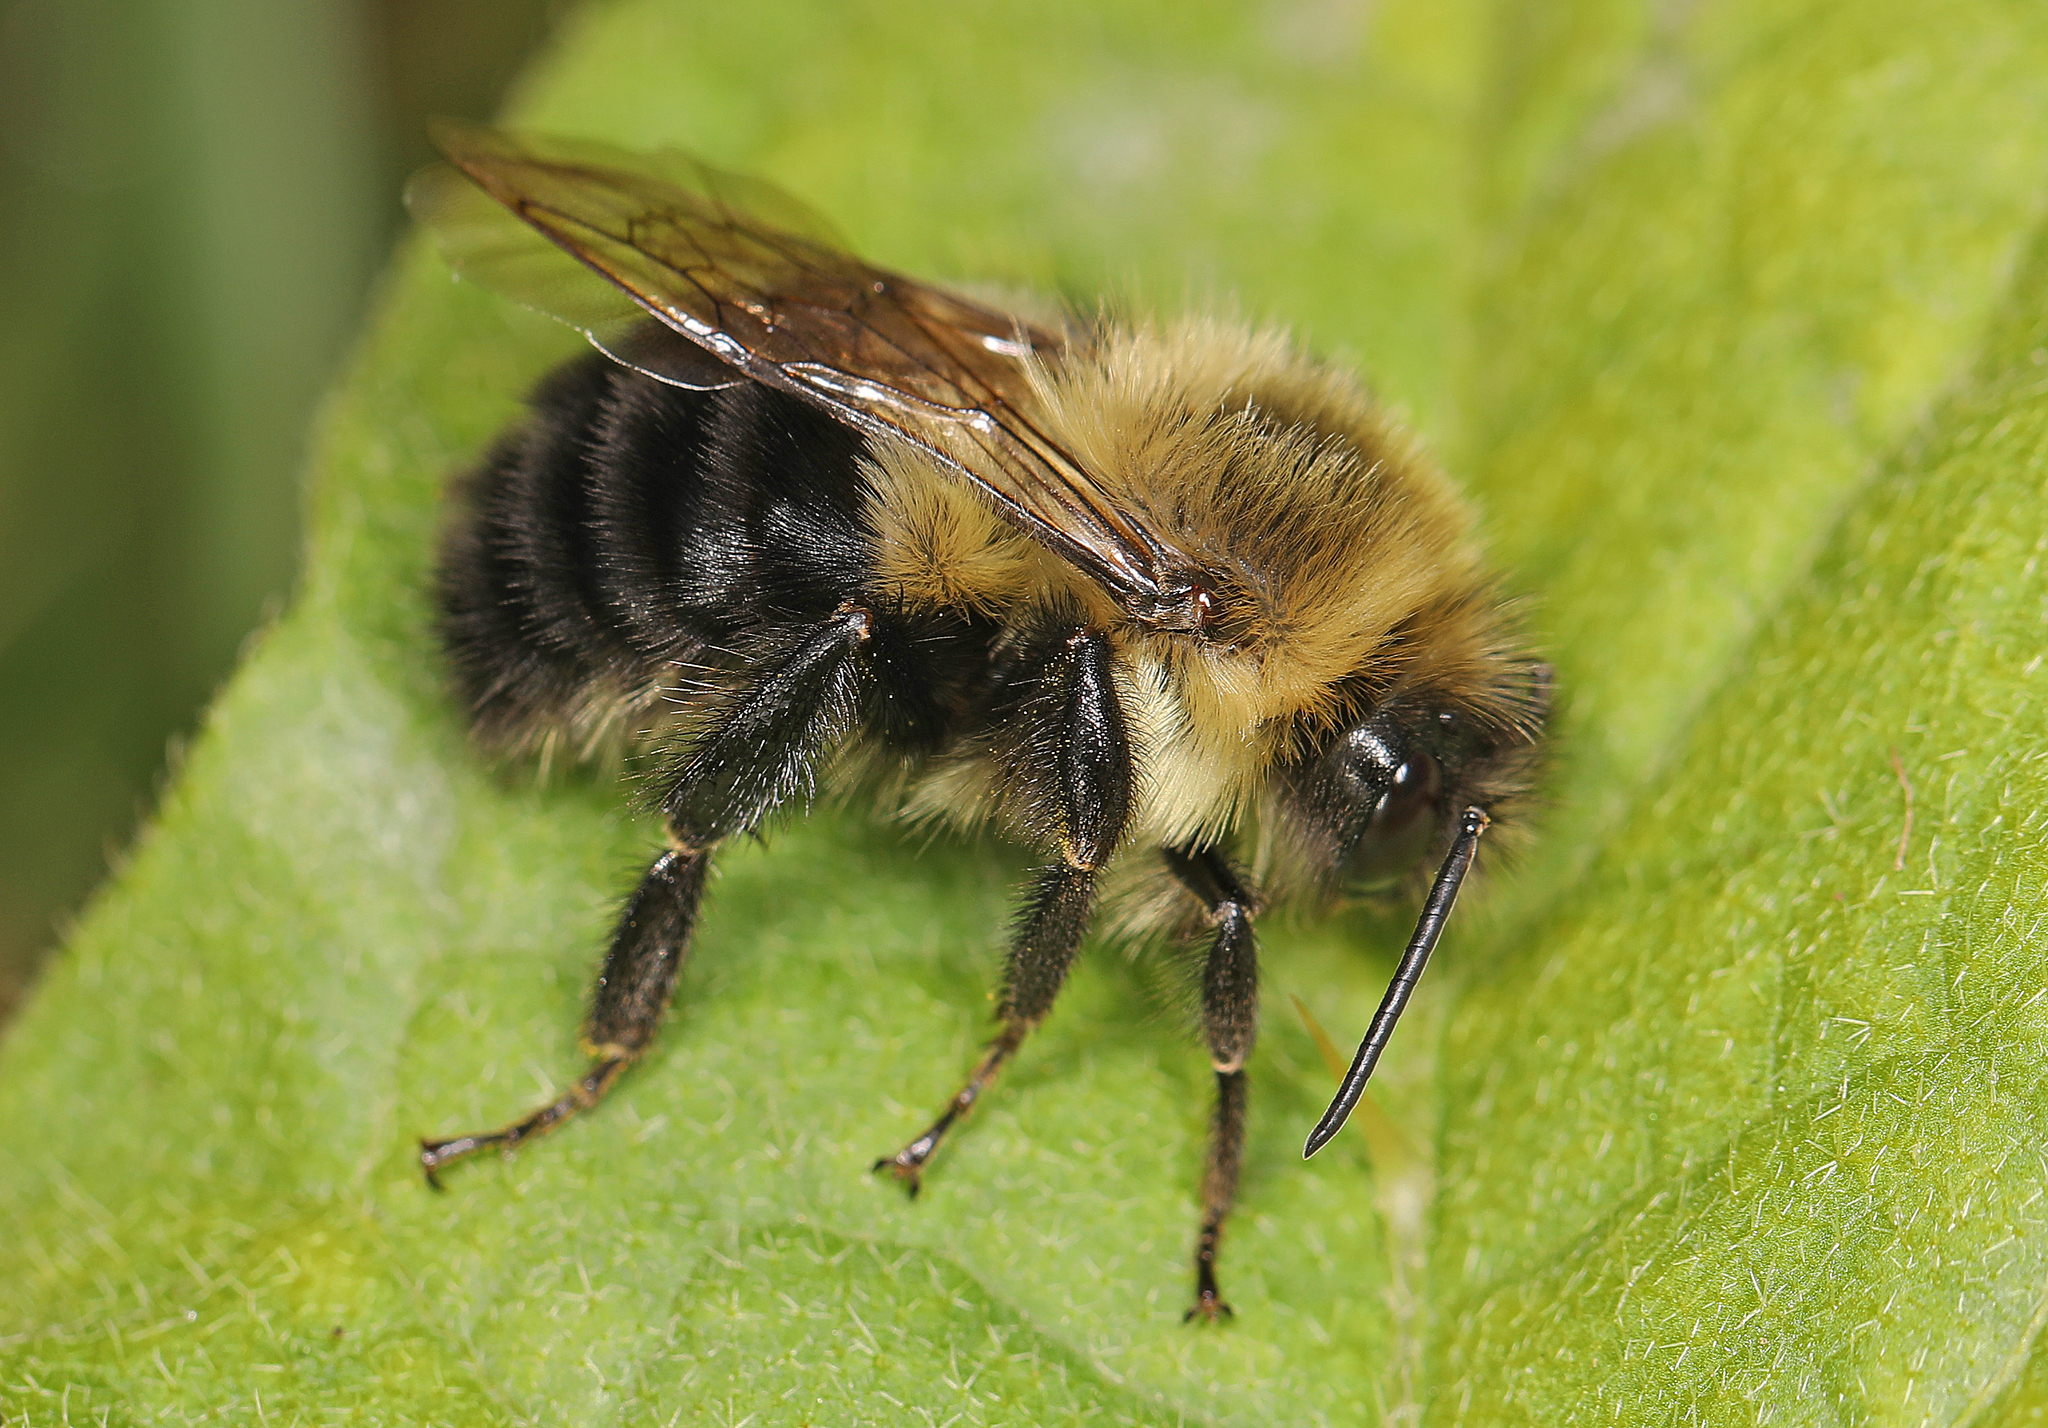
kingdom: Animalia
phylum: Arthropoda
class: Insecta
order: Hymenoptera
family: Apidae
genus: Bombus
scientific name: Bombus impatiens
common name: Common eastern bumble bee
